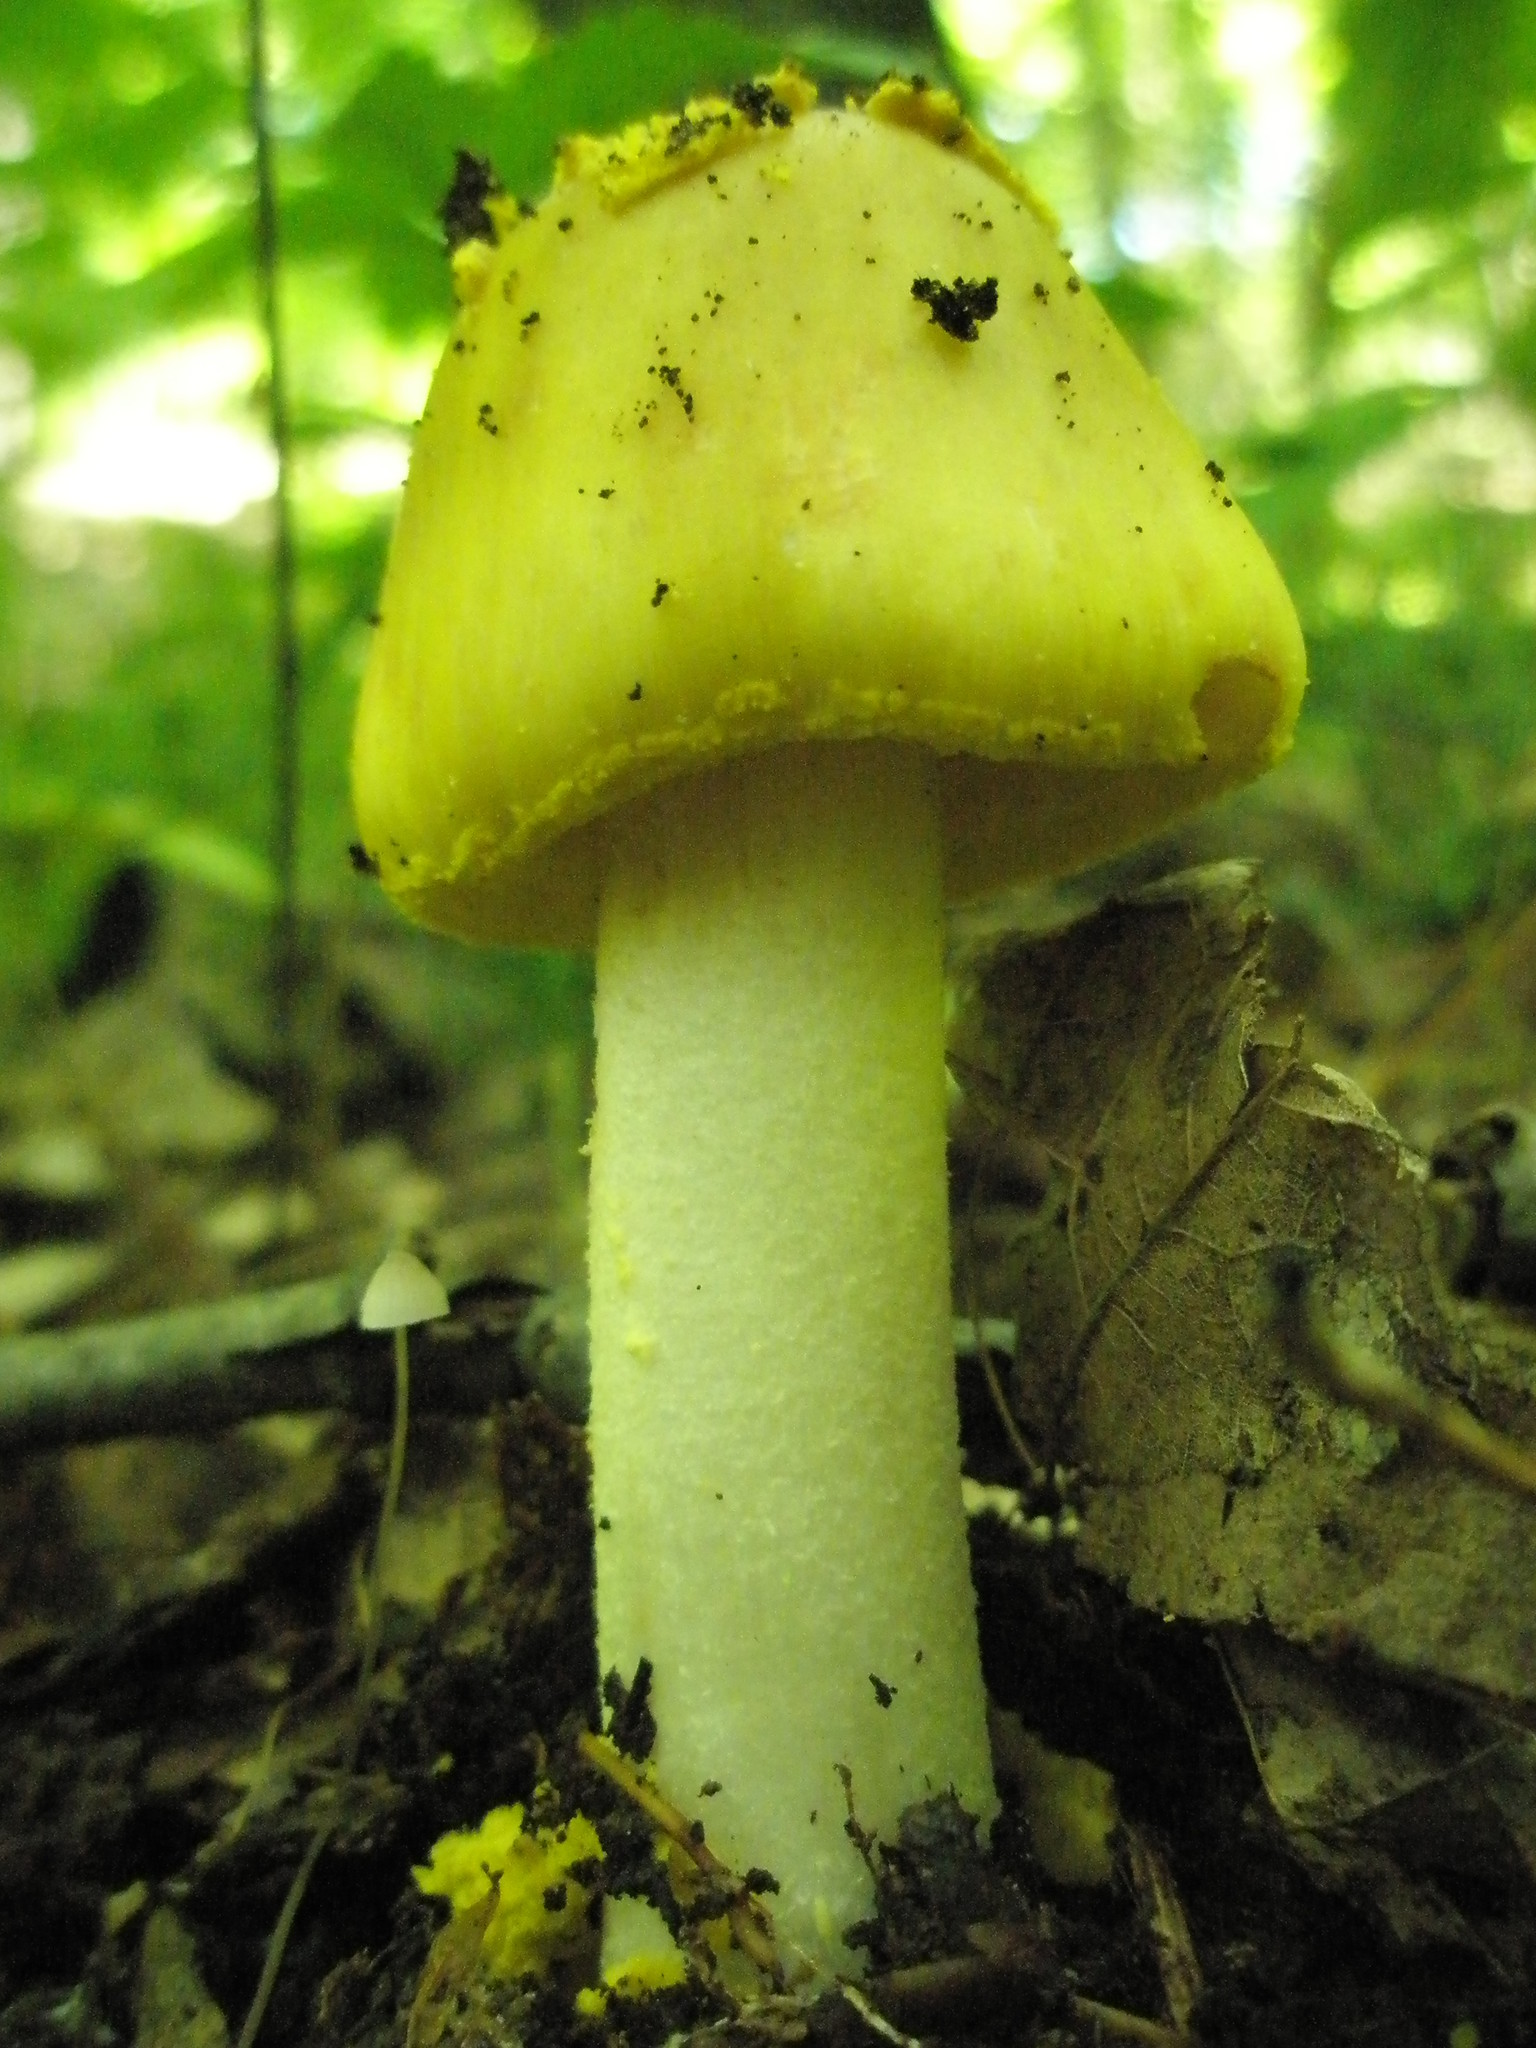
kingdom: Fungi
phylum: Basidiomycota
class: Agaricomycetes
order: Agaricales
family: Amanitaceae
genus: Amanita
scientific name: Amanita flavorubens
